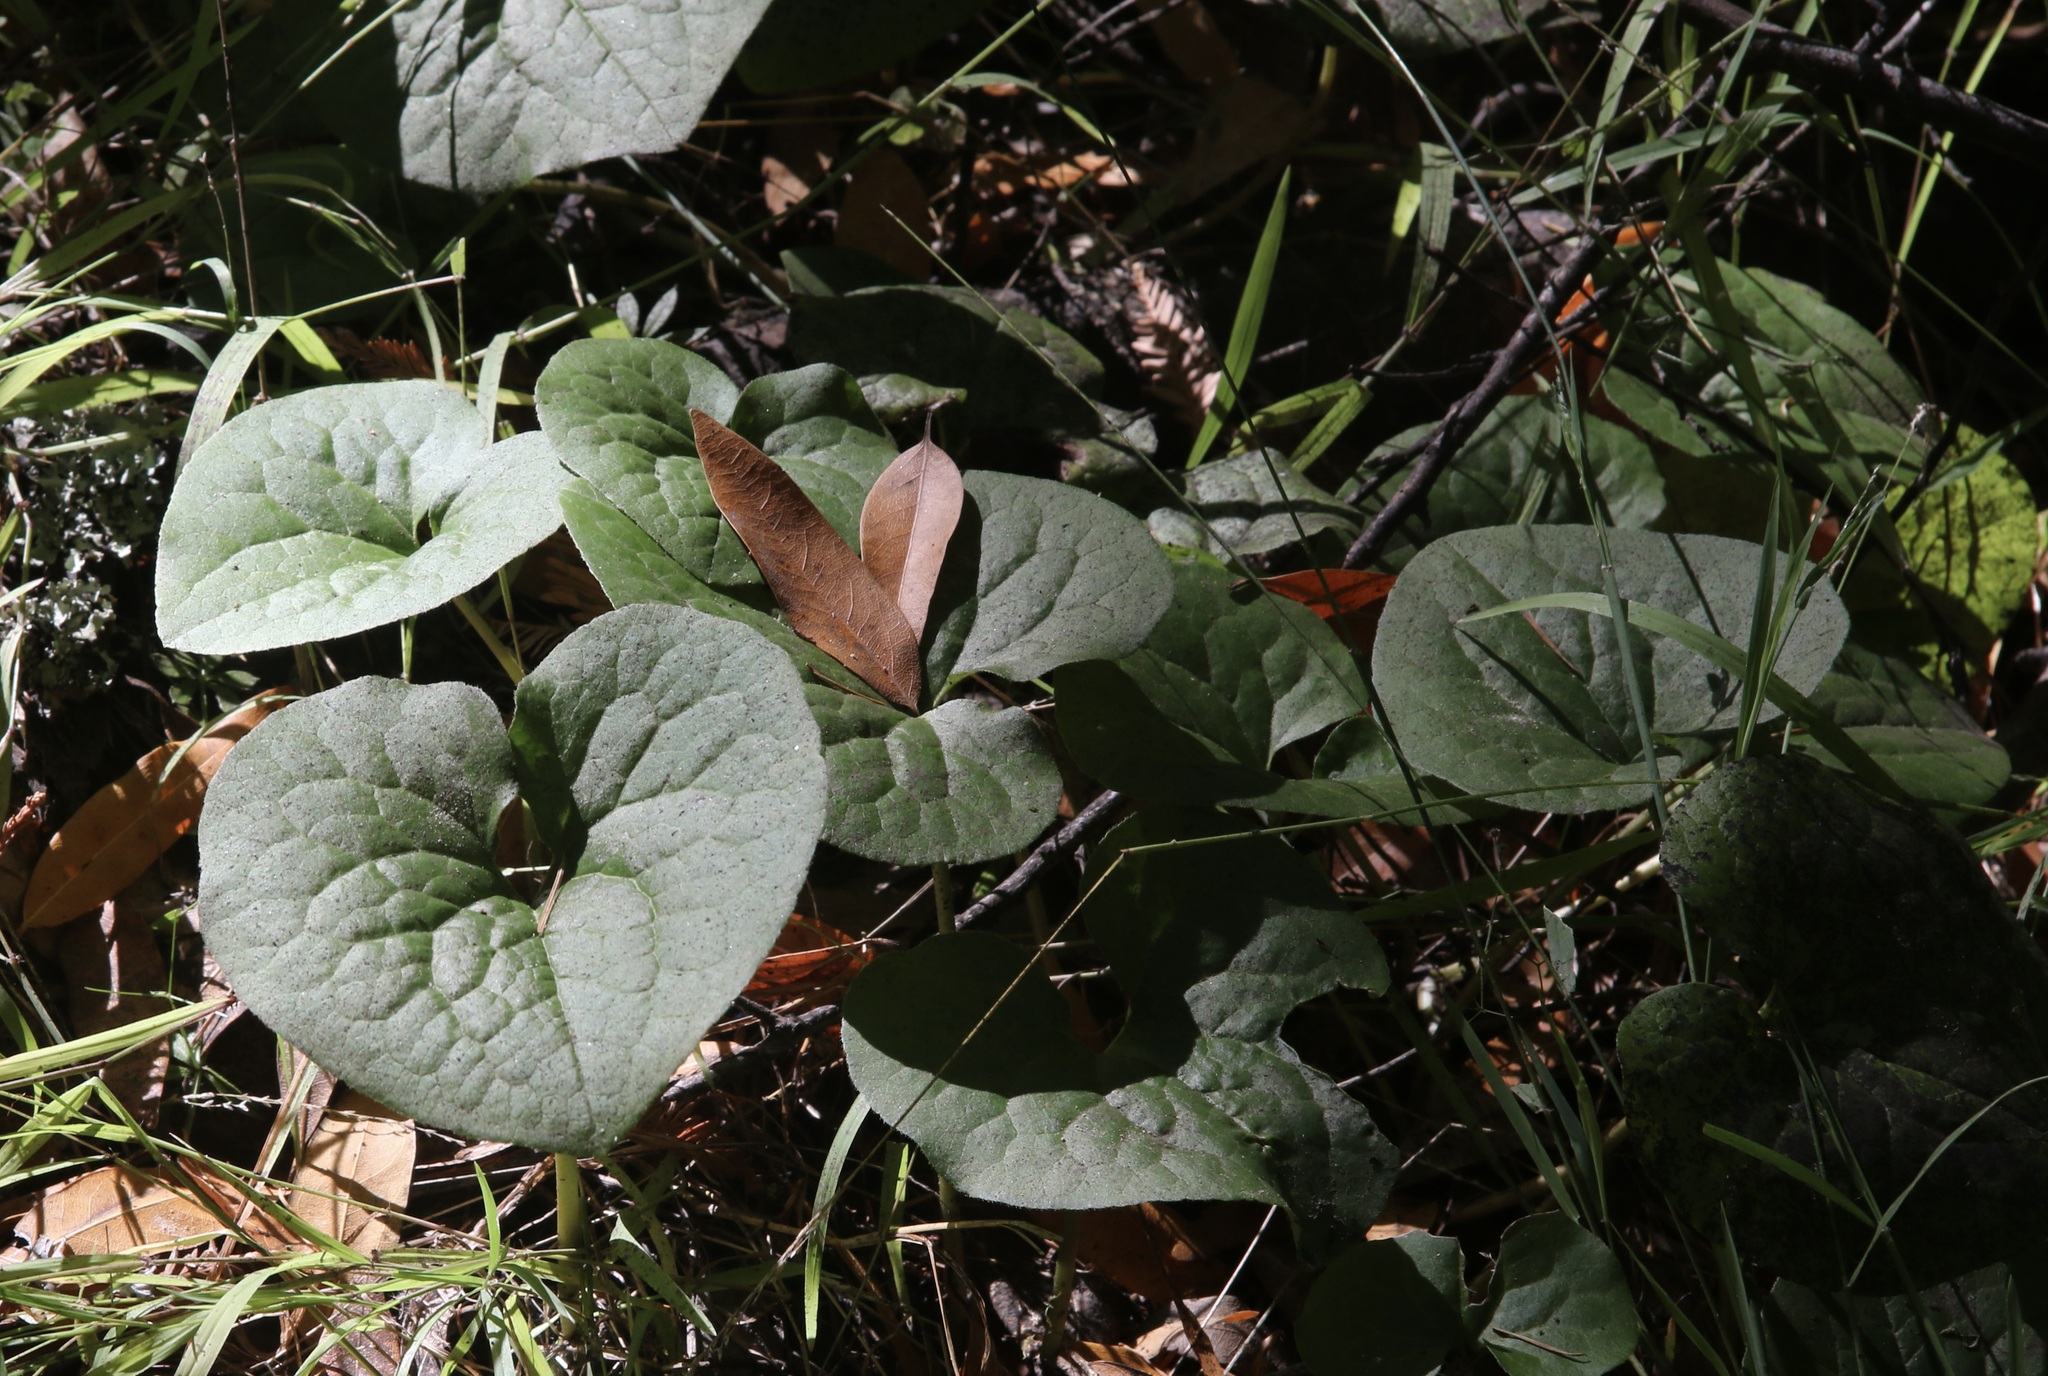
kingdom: Plantae
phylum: Tracheophyta
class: Magnoliopsida
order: Piperales
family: Aristolochiaceae
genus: Asarum
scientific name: Asarum caudatum
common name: Wild ginger
